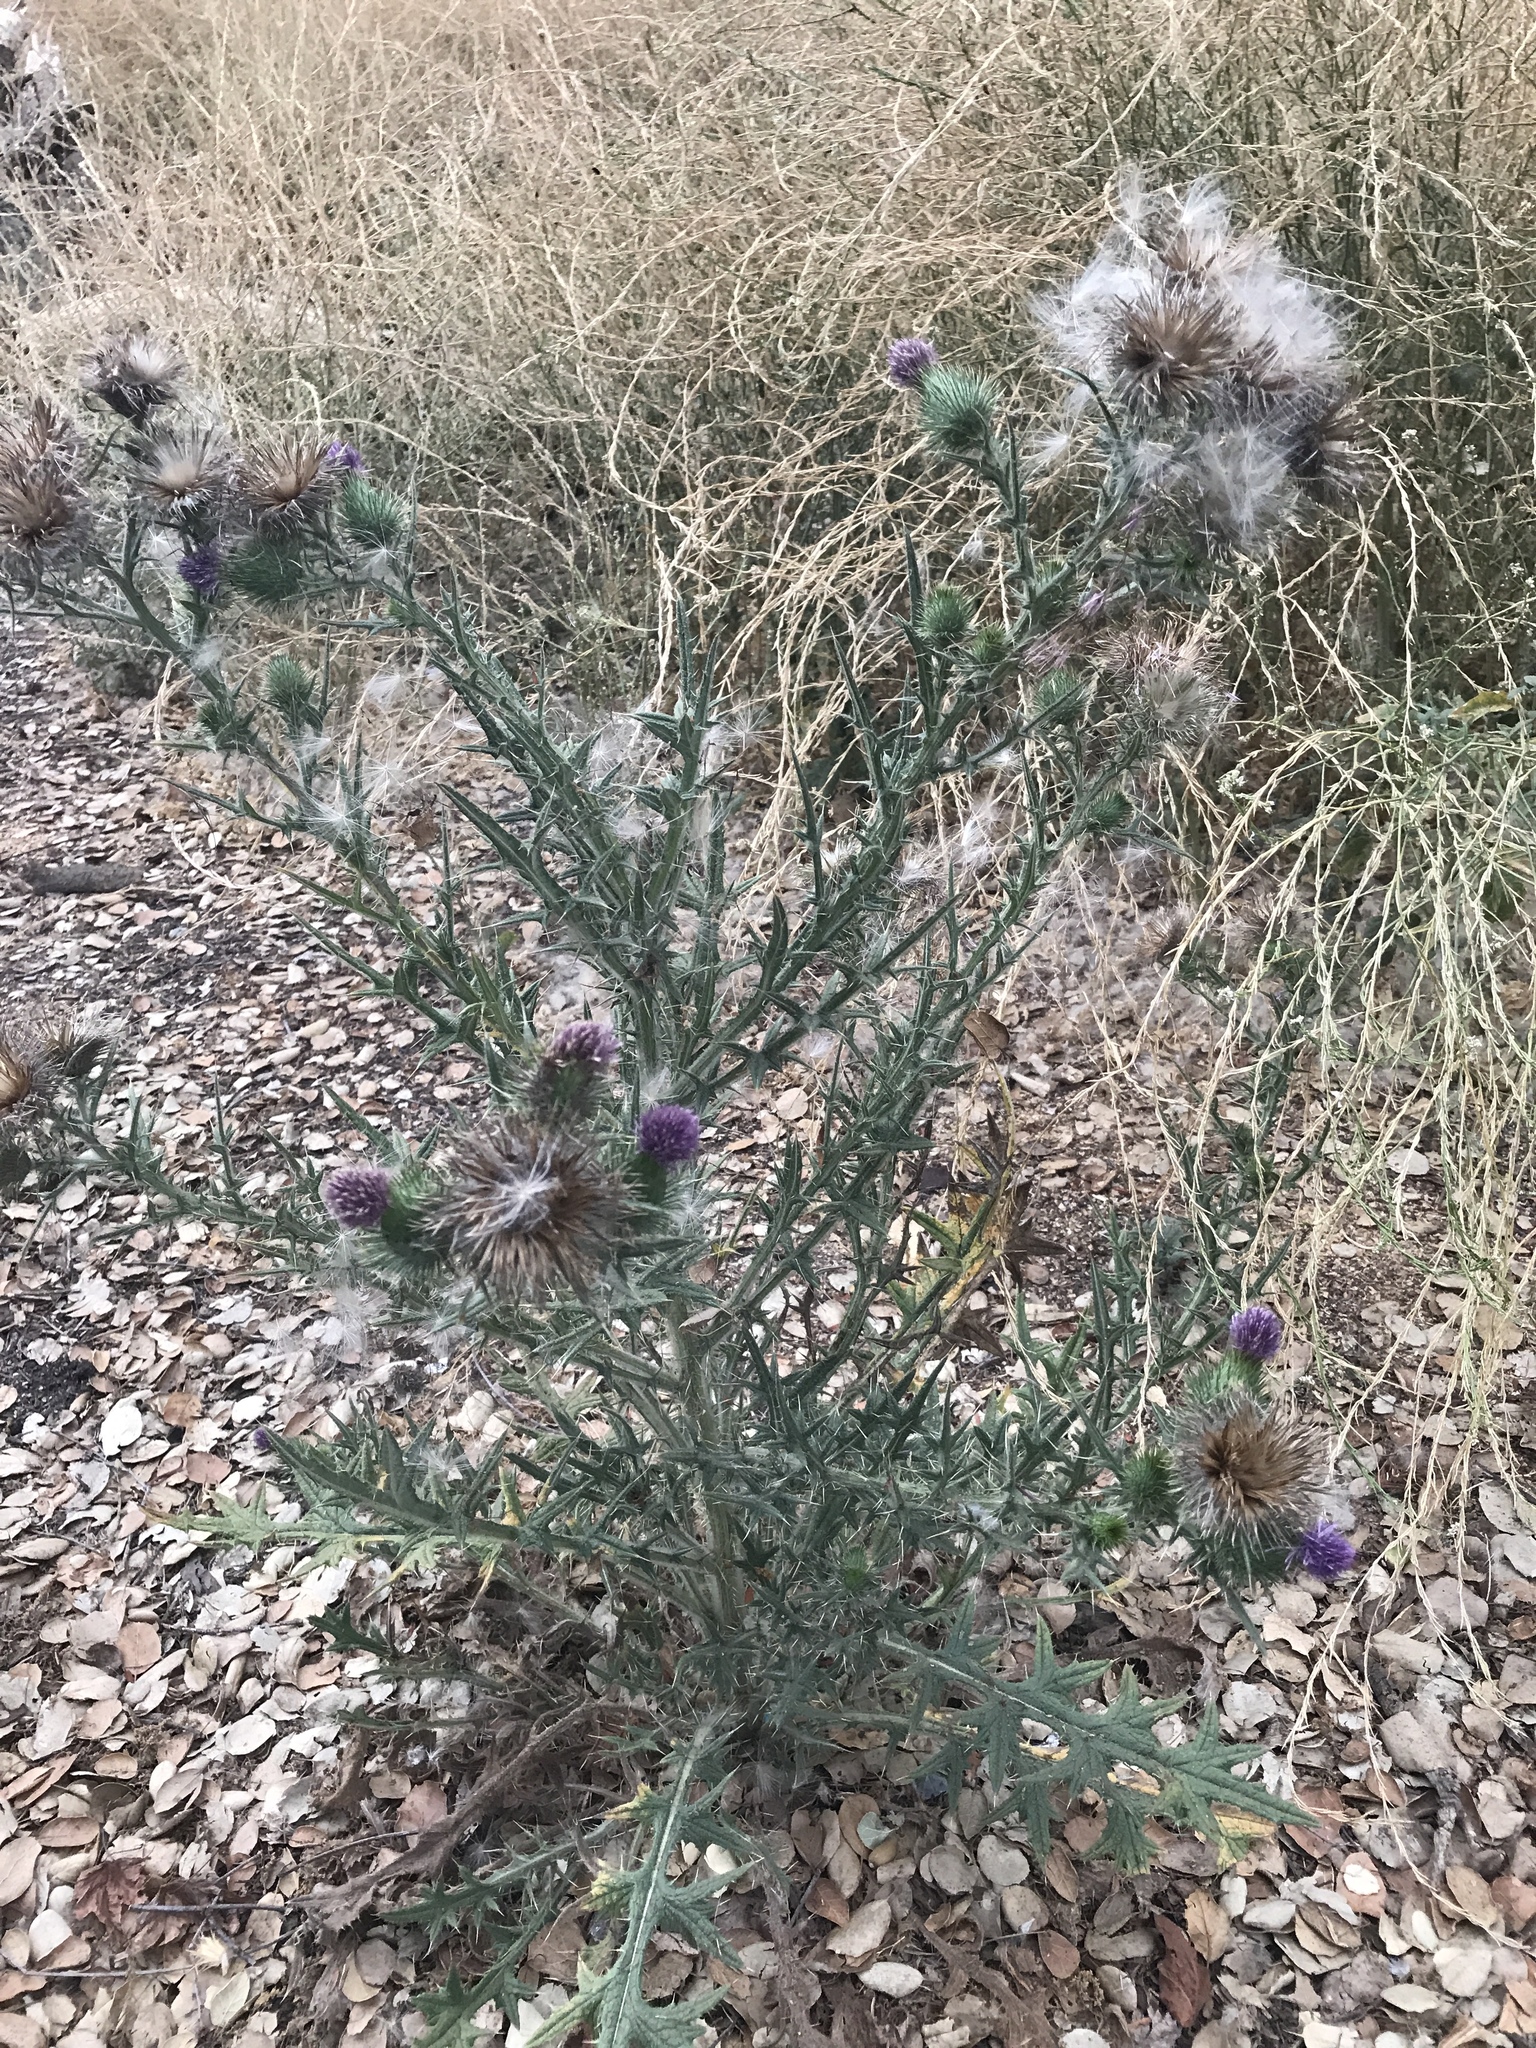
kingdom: Plantae
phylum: Tracheophyta
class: Magnoliopsida
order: Asterales
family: Asteraceae
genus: Cirsium
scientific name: Cirsium vulgare
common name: Bull thistle
